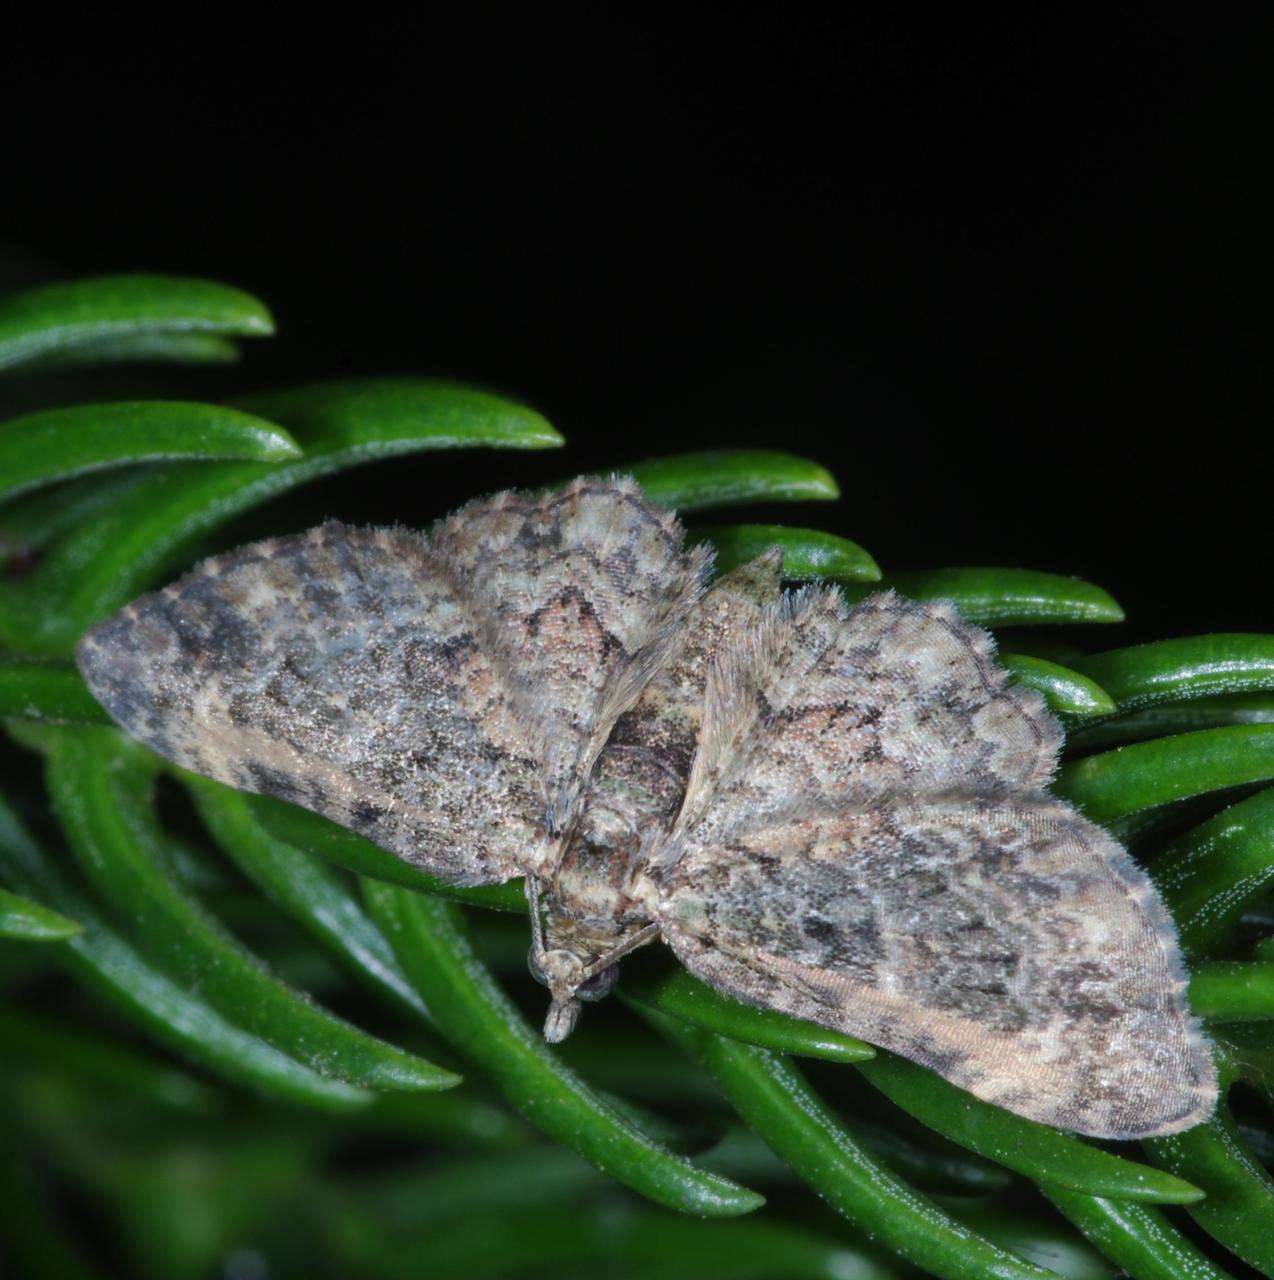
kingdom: Animalia
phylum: Arthropoda
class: Insecta
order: Lepidoptera
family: Geometridae
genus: Chloroclystis
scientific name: Chloroclystis catastreptes
